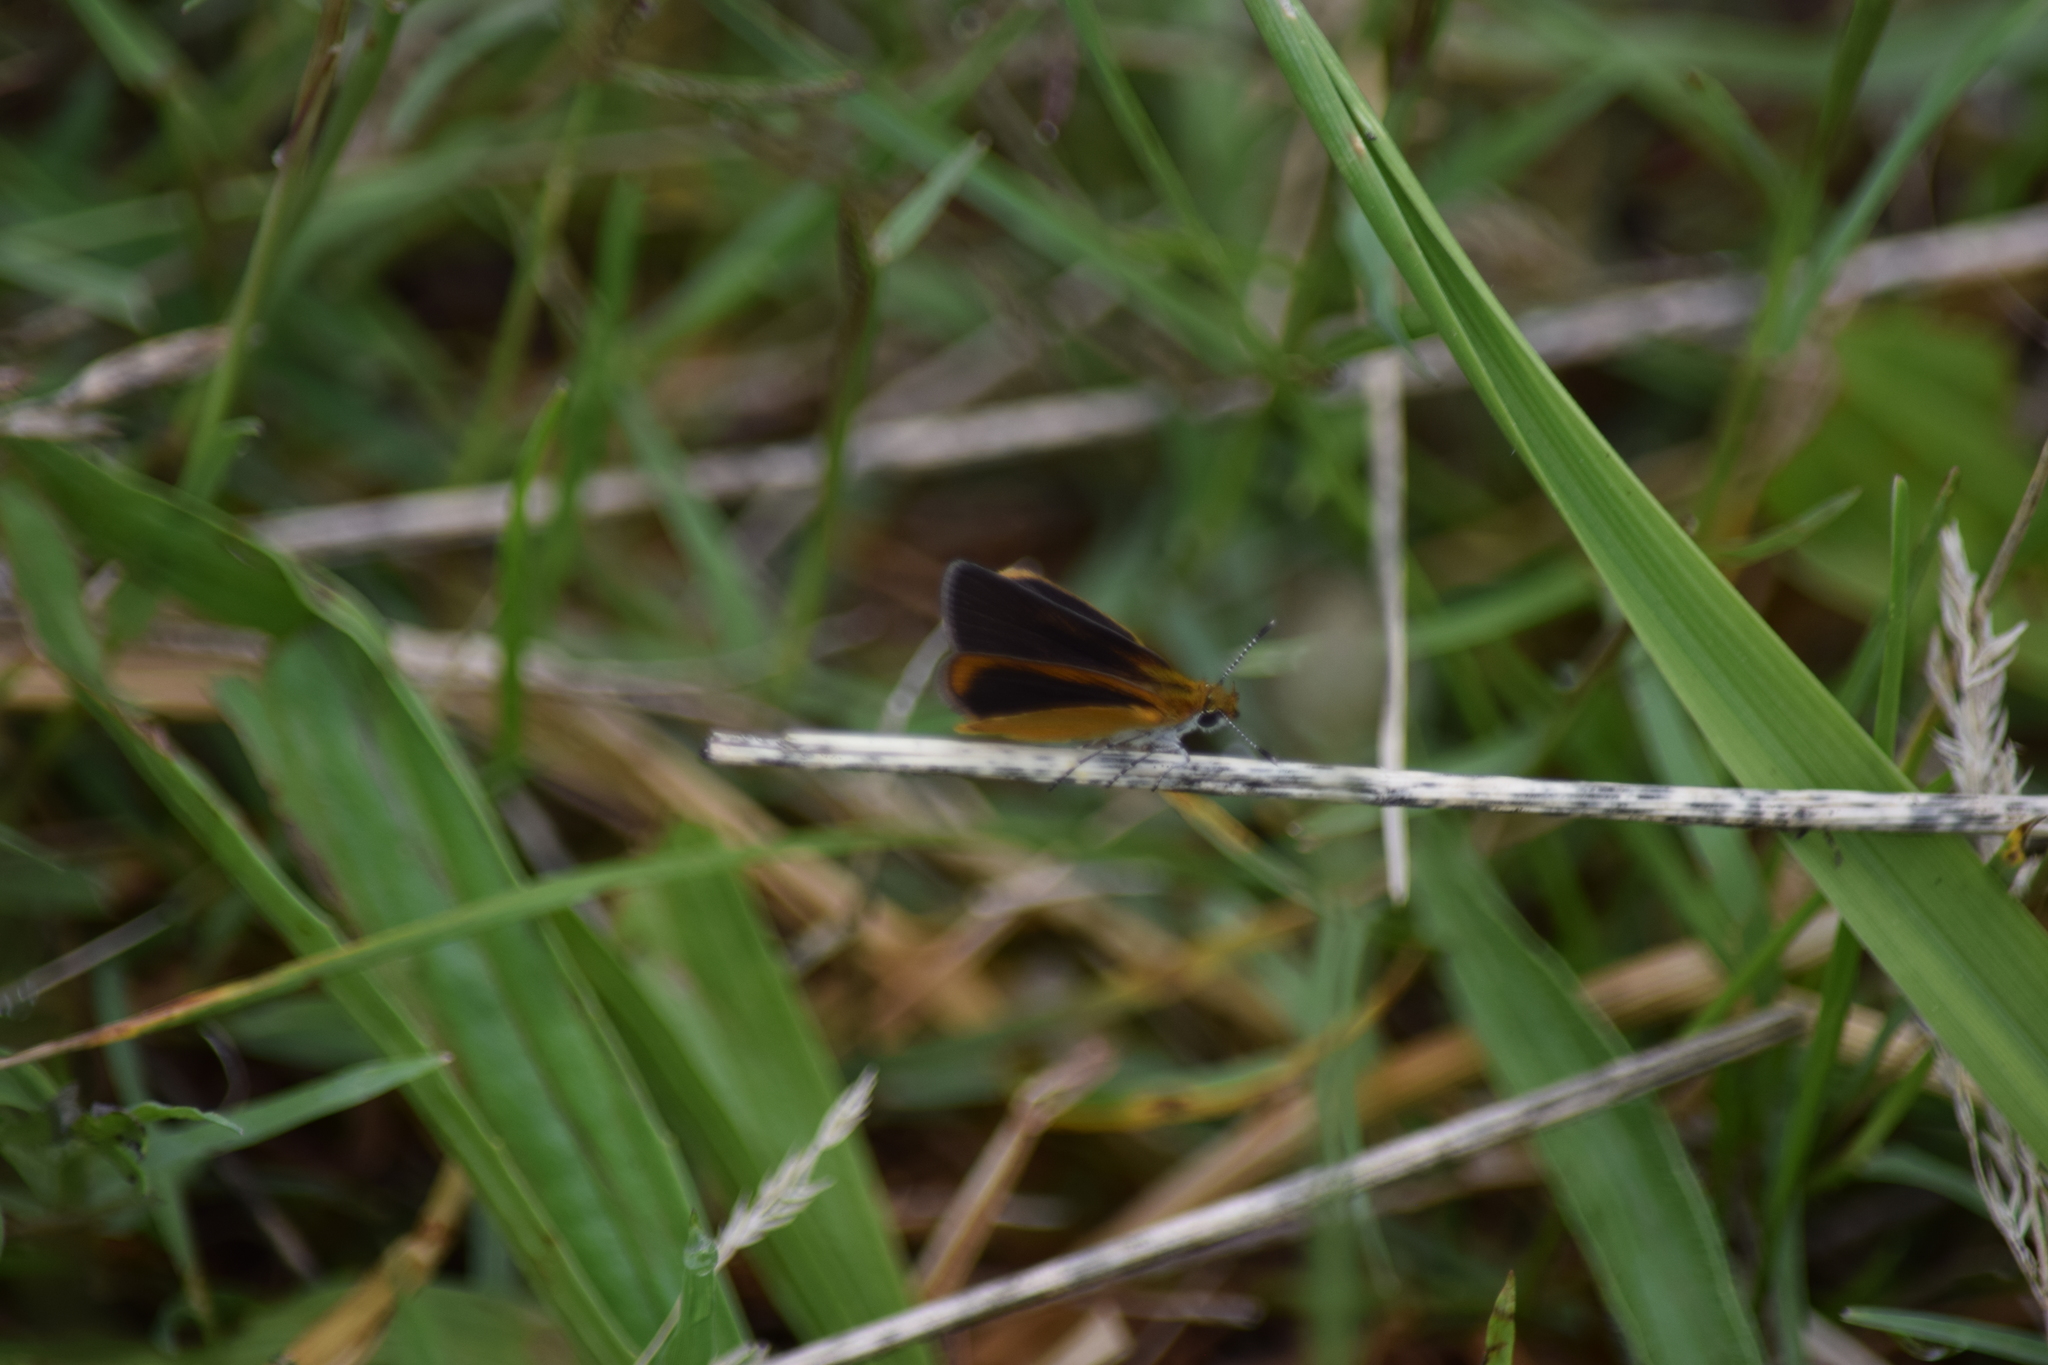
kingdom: Animalia
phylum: Arthropoda
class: Insecta
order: Lepidoptera
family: Hesperiidae
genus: Ancyloxypha
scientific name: Ancyloxypha numitor
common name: Least skipper
